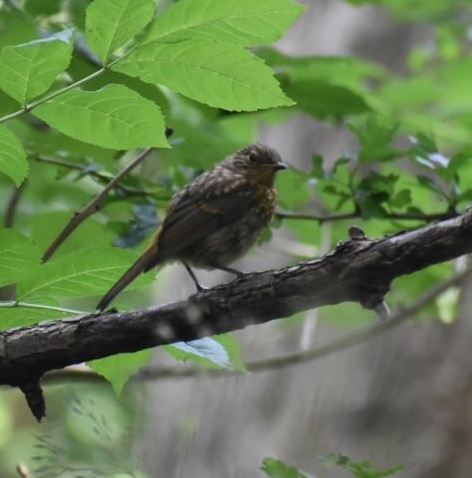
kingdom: Animalia
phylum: Chordata
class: Aves
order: Passeriformes
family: Muscicapidae
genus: Erithacus
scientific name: Erithacus rubecula
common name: European robin
